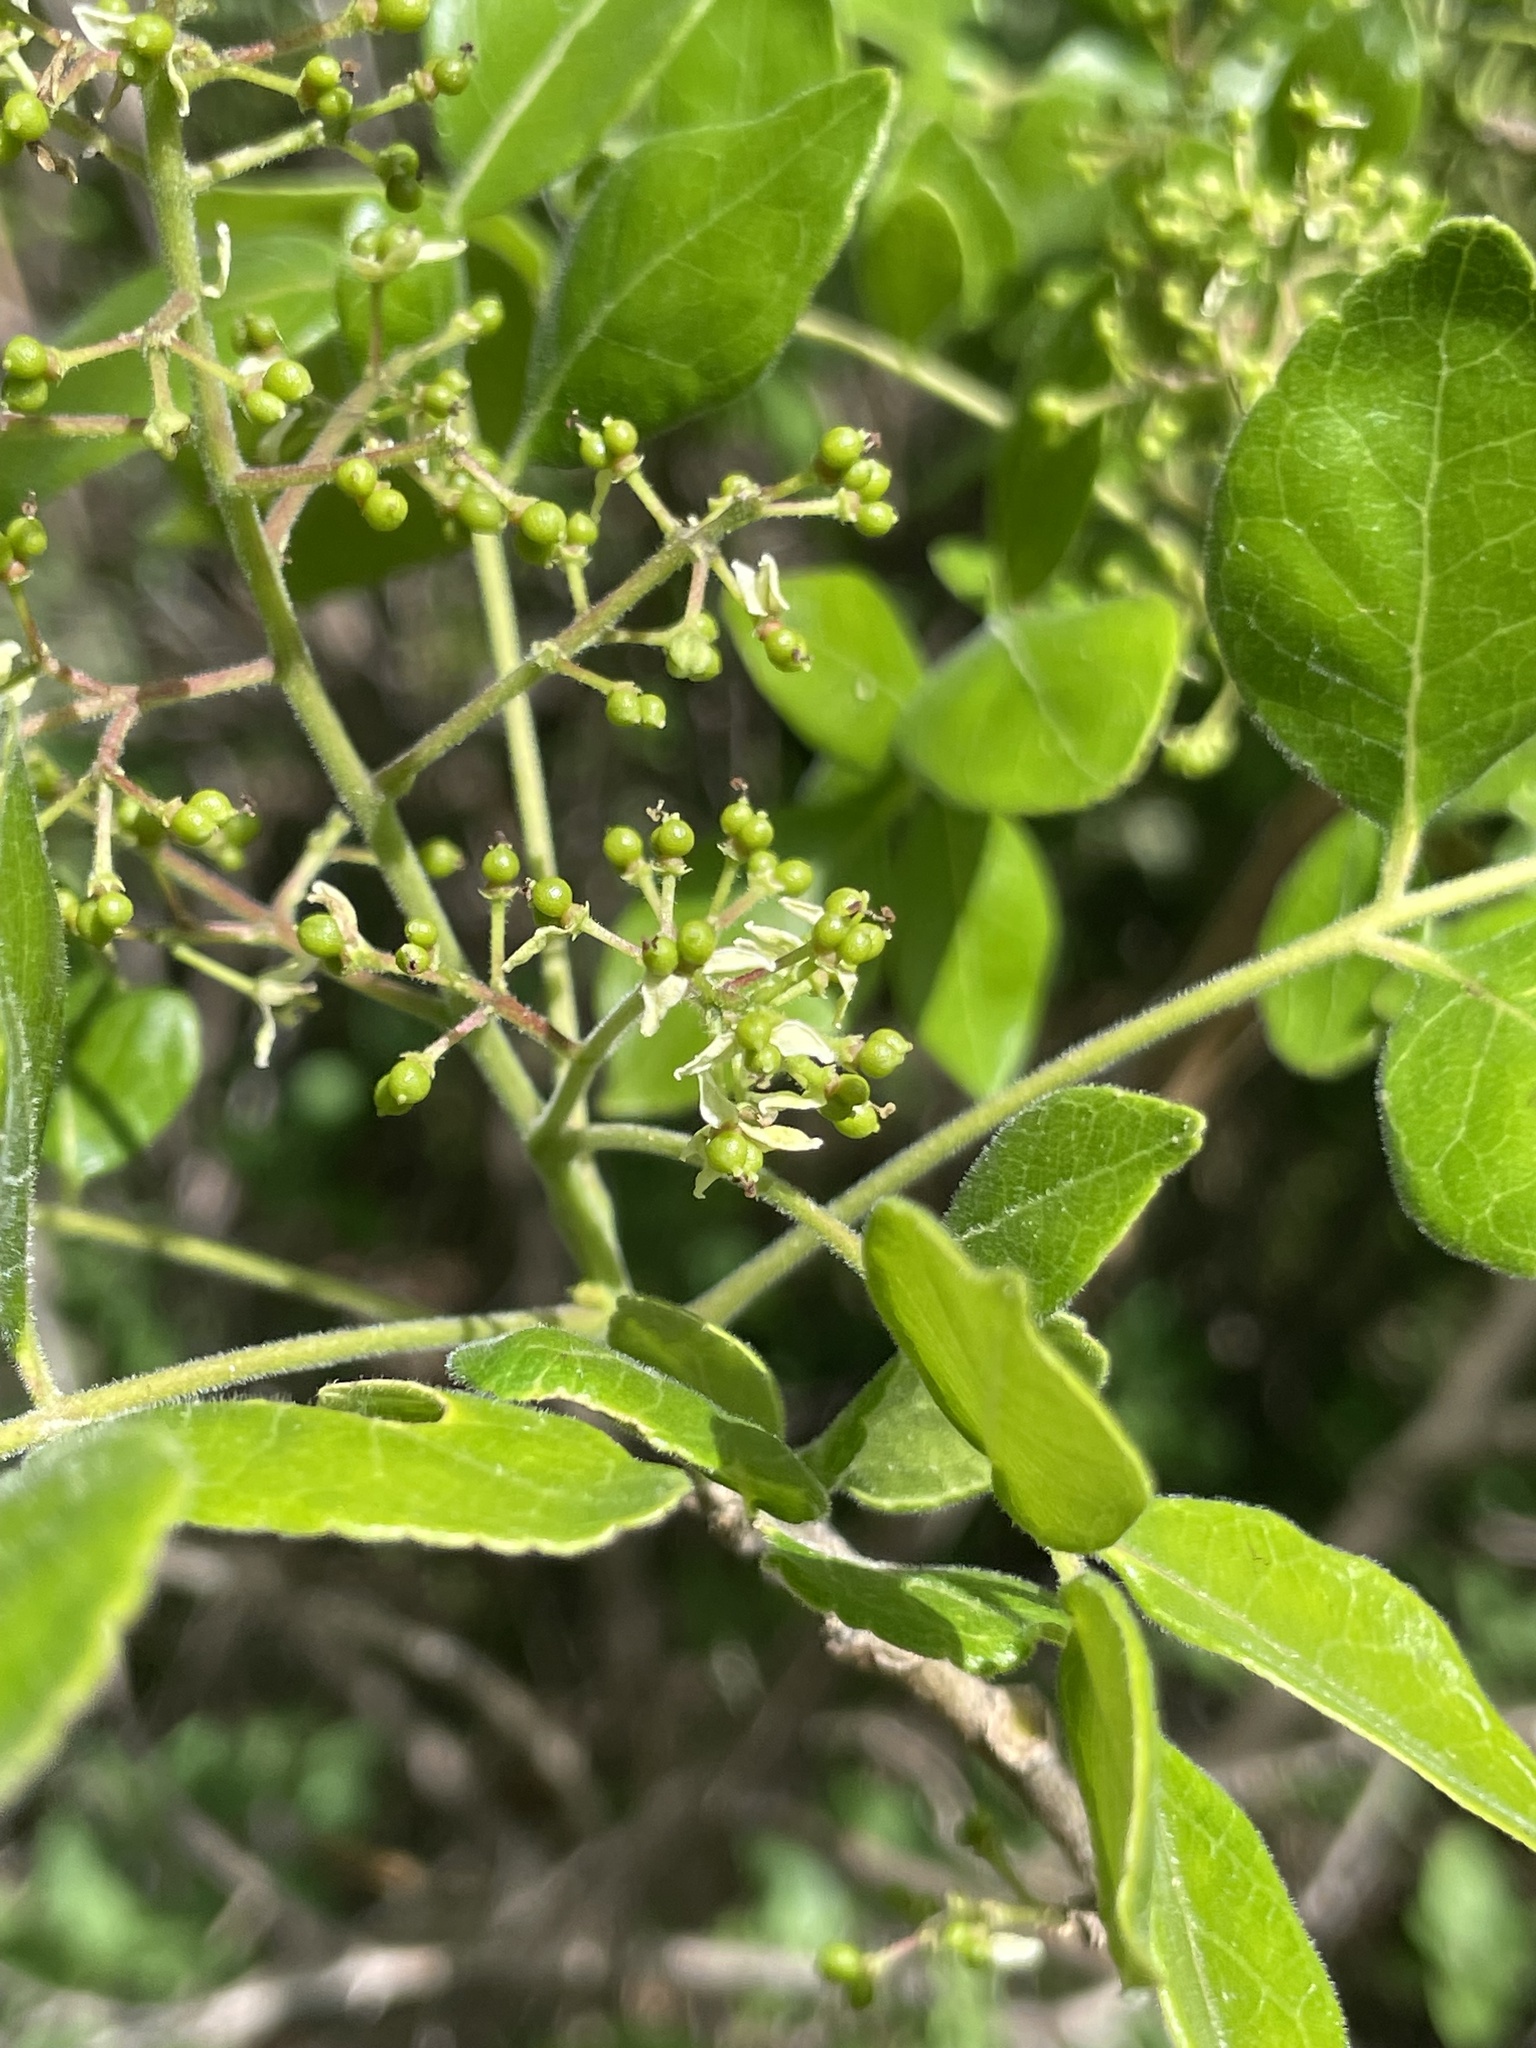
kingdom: Plantae
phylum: Tracheophyta
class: Magnoliopsida
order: Sapindales
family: Rutaceae
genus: Zanthoxylum
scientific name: Zanthoxylum arborescens
